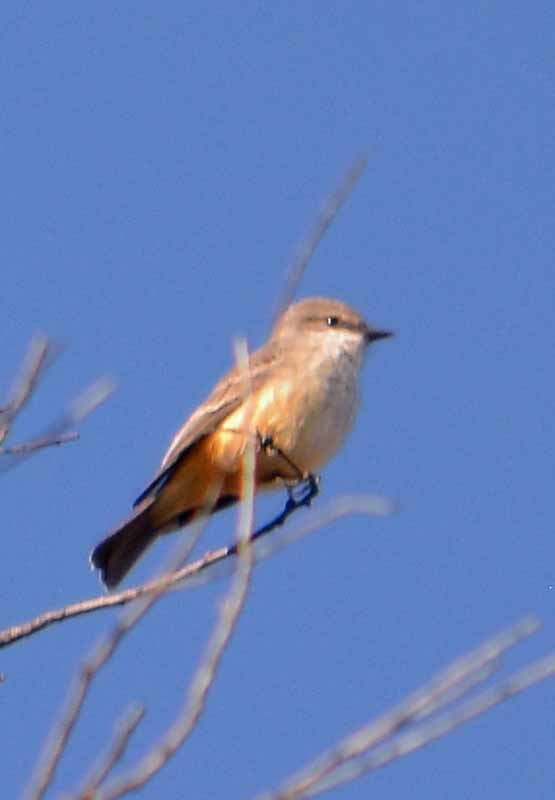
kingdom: Animalia
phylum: Chordata
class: Aves
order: Passeriformes
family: Tyrannidae
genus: Pyrocephalus
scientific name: Pyrocephalus rubinus
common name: Vermilion flycatcher
